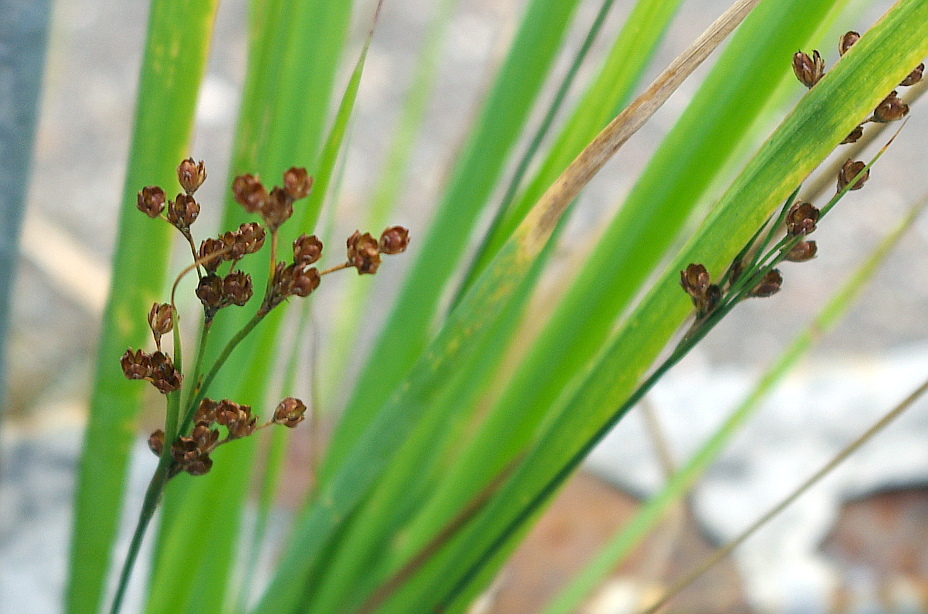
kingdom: Plantae
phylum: Tracheophyta
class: Liliopsida
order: Poales
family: Juncaceae
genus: Juncus
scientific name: Juncus compressus
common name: Round-fruited rush
